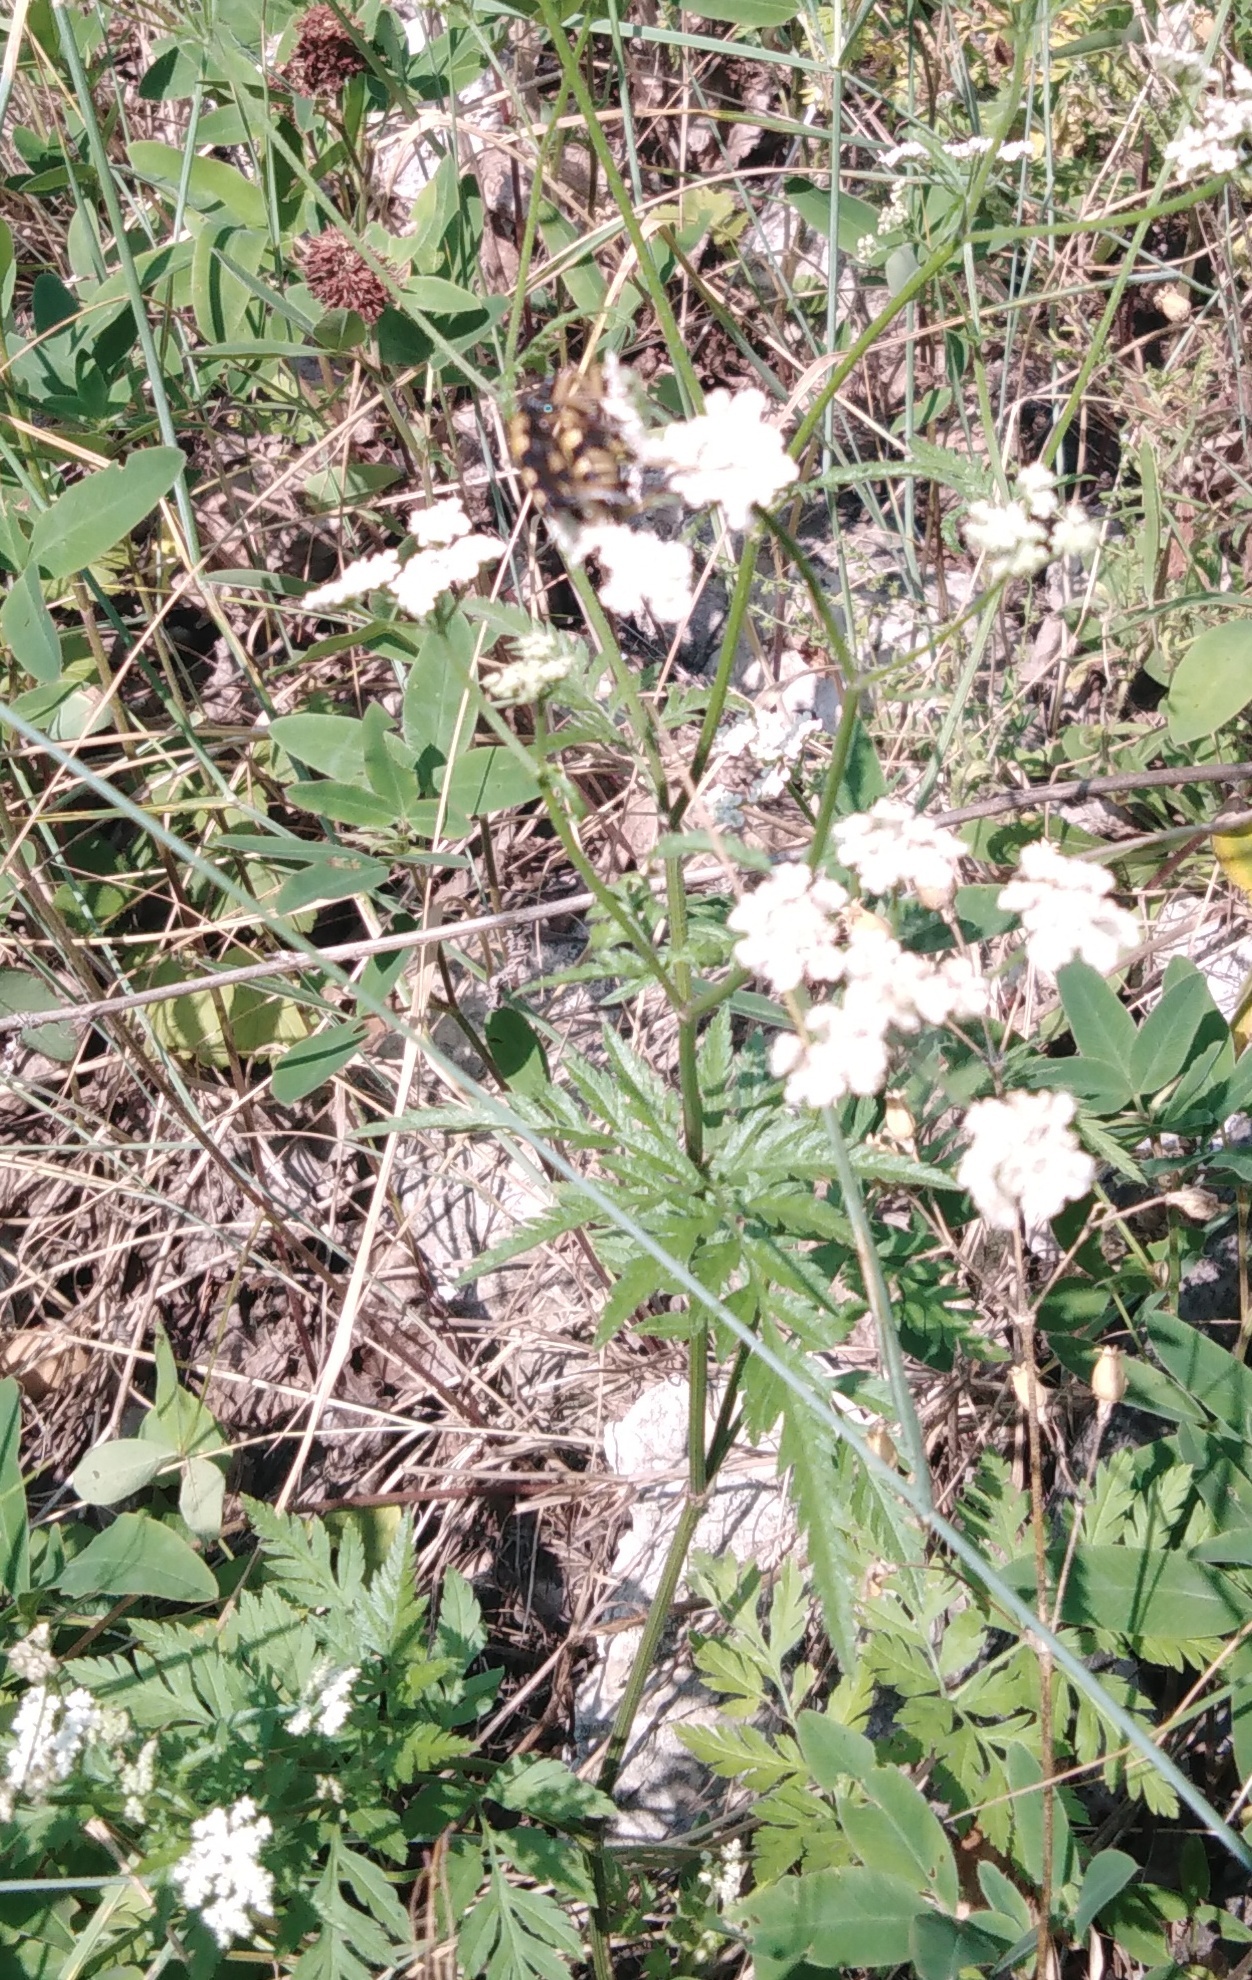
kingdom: Plantae
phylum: Tracheophyta
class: Magnoliopsida
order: Apiales
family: Apiaceae
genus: Torilis
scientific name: Torilis japonica
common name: Upright hedge-parsley
